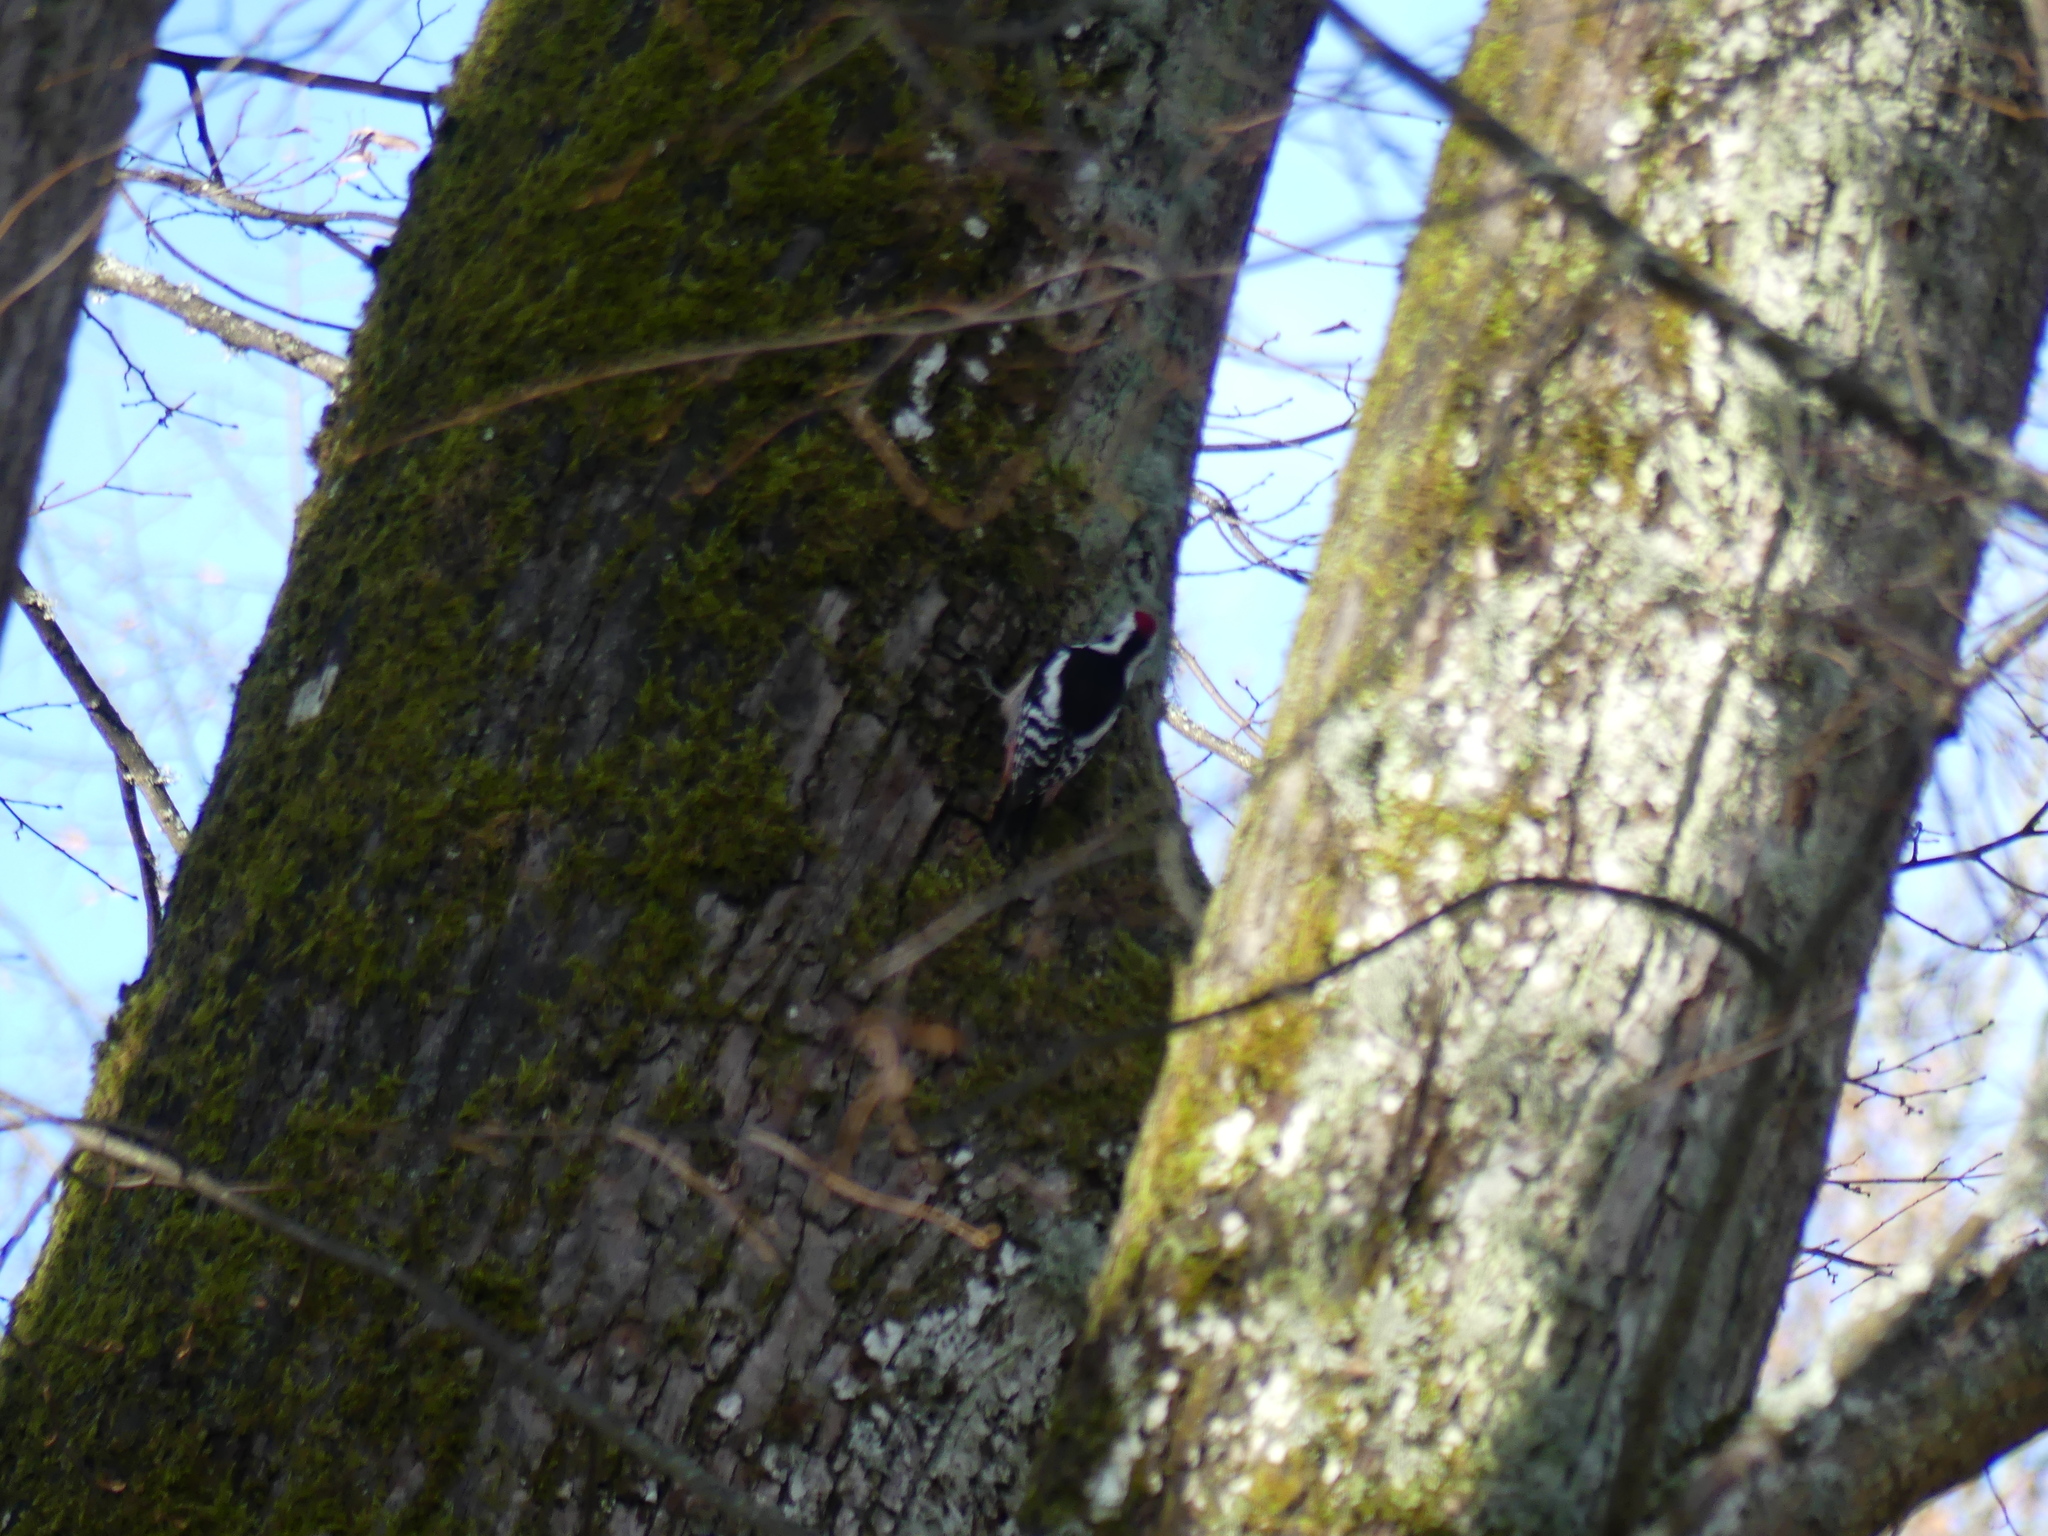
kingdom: Animalia
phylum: Chordata
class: Aves
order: Piciformes
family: Picidae
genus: Dendrocopos
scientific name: Dendrocopos major
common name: Great spotted woodpecker
